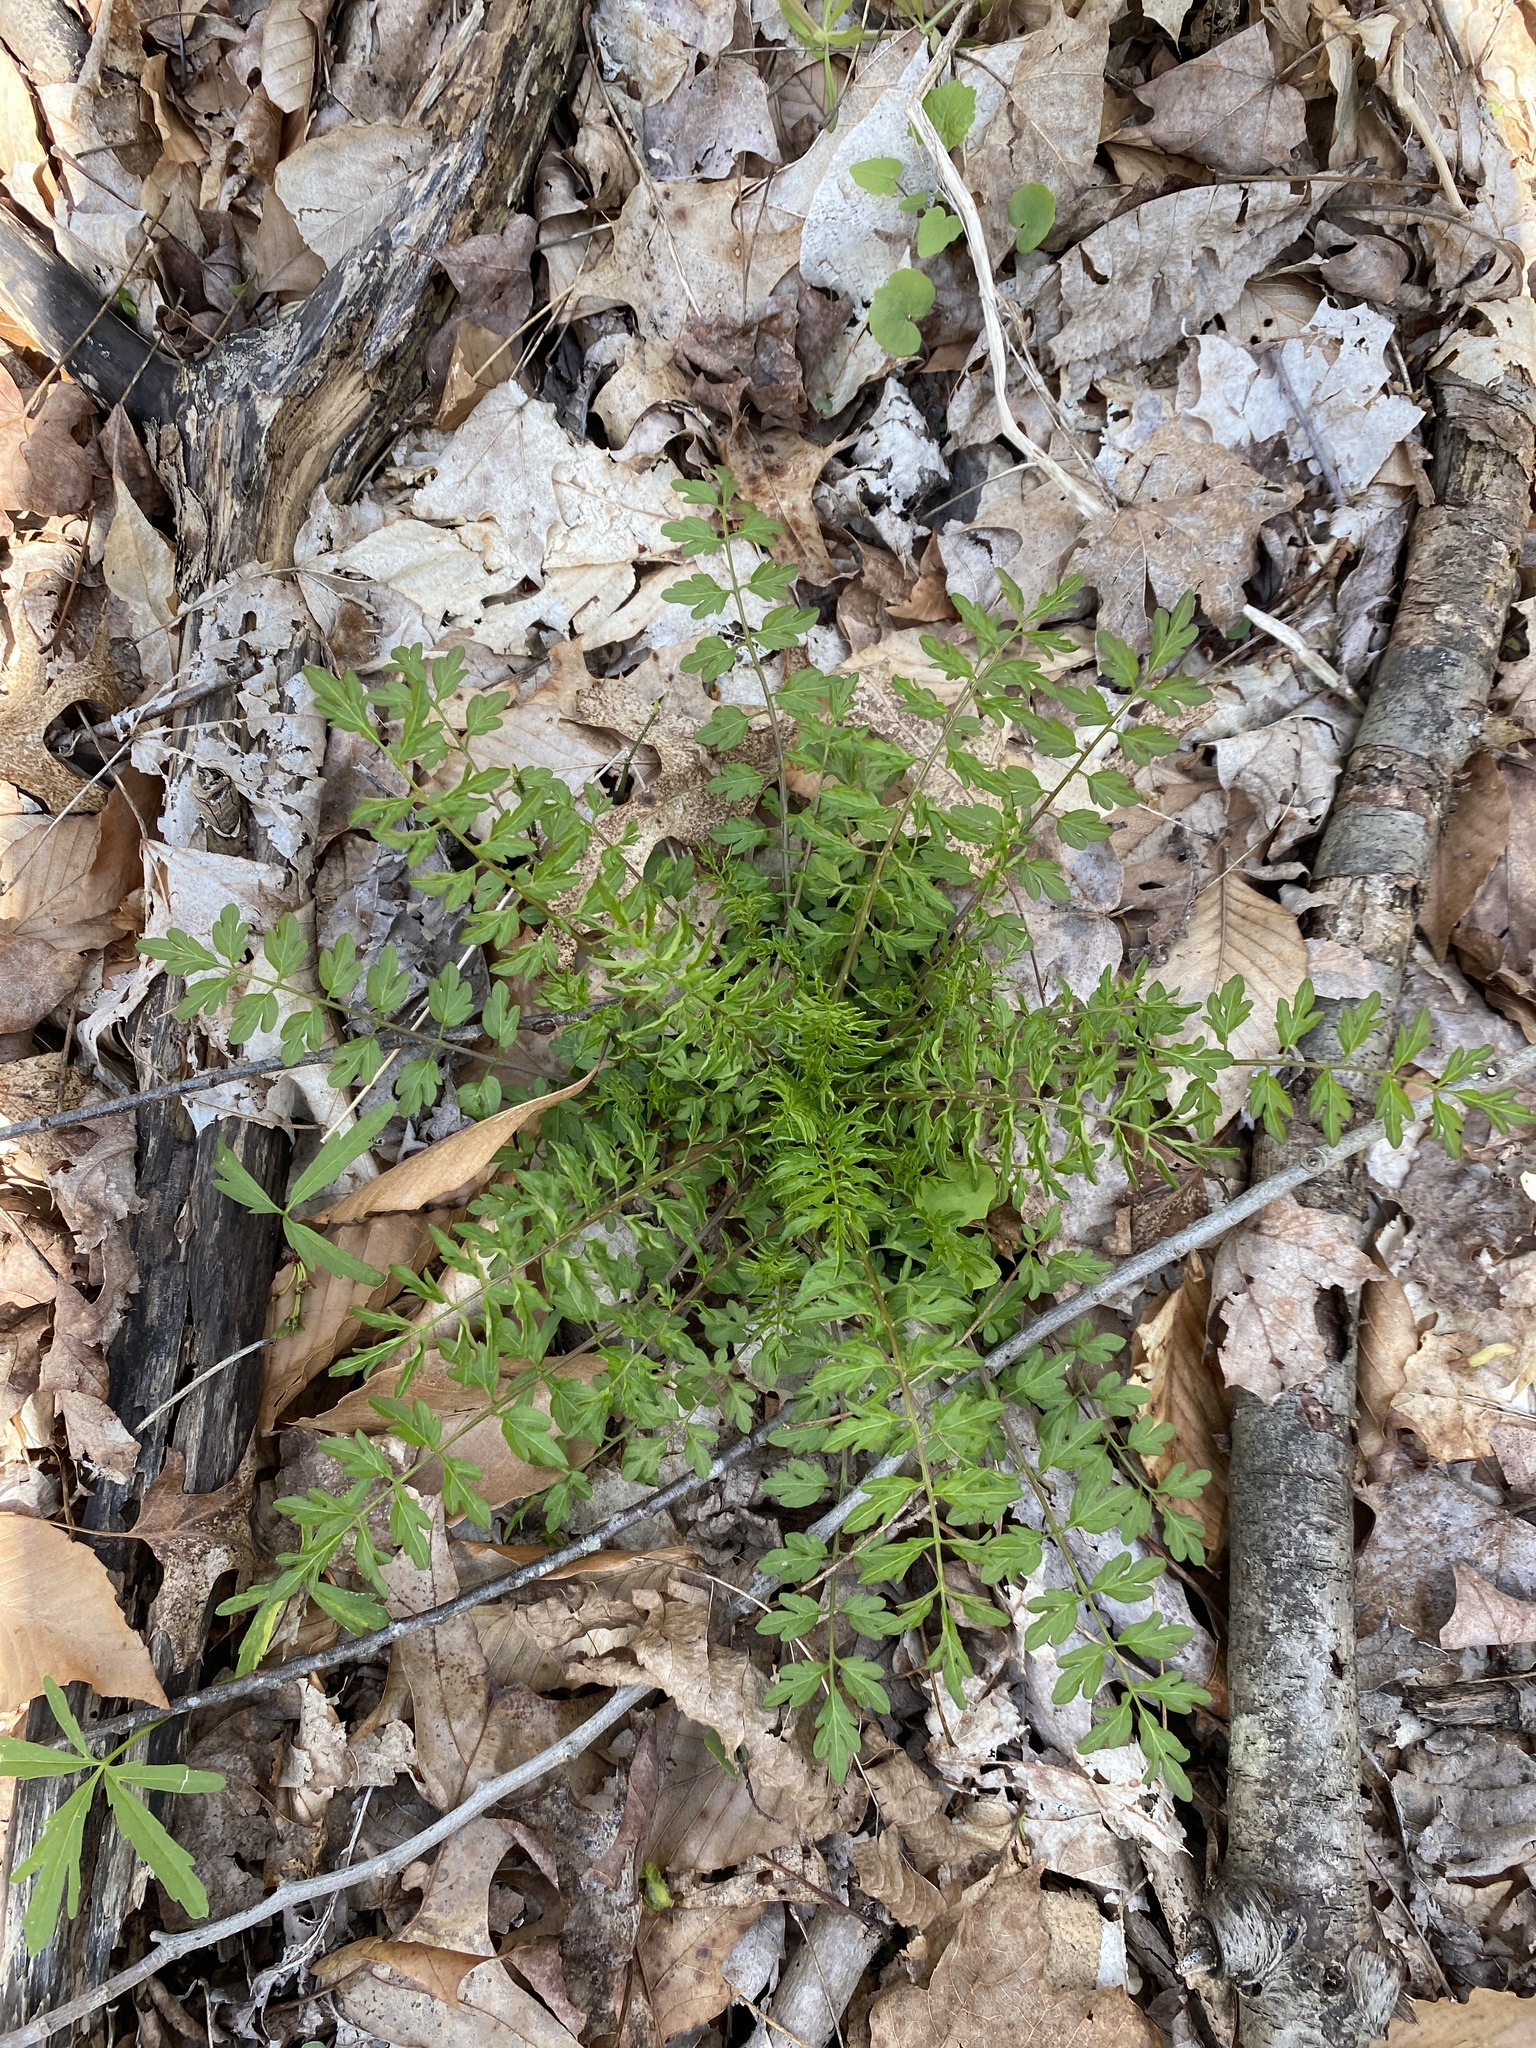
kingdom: Plantae
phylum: Tracheophyta
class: Magnoliopsida
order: Brassicales
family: Brassicaceae
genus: Cardamine
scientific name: Cardamine impatiens
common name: Narrow-leaved bitter-cress
